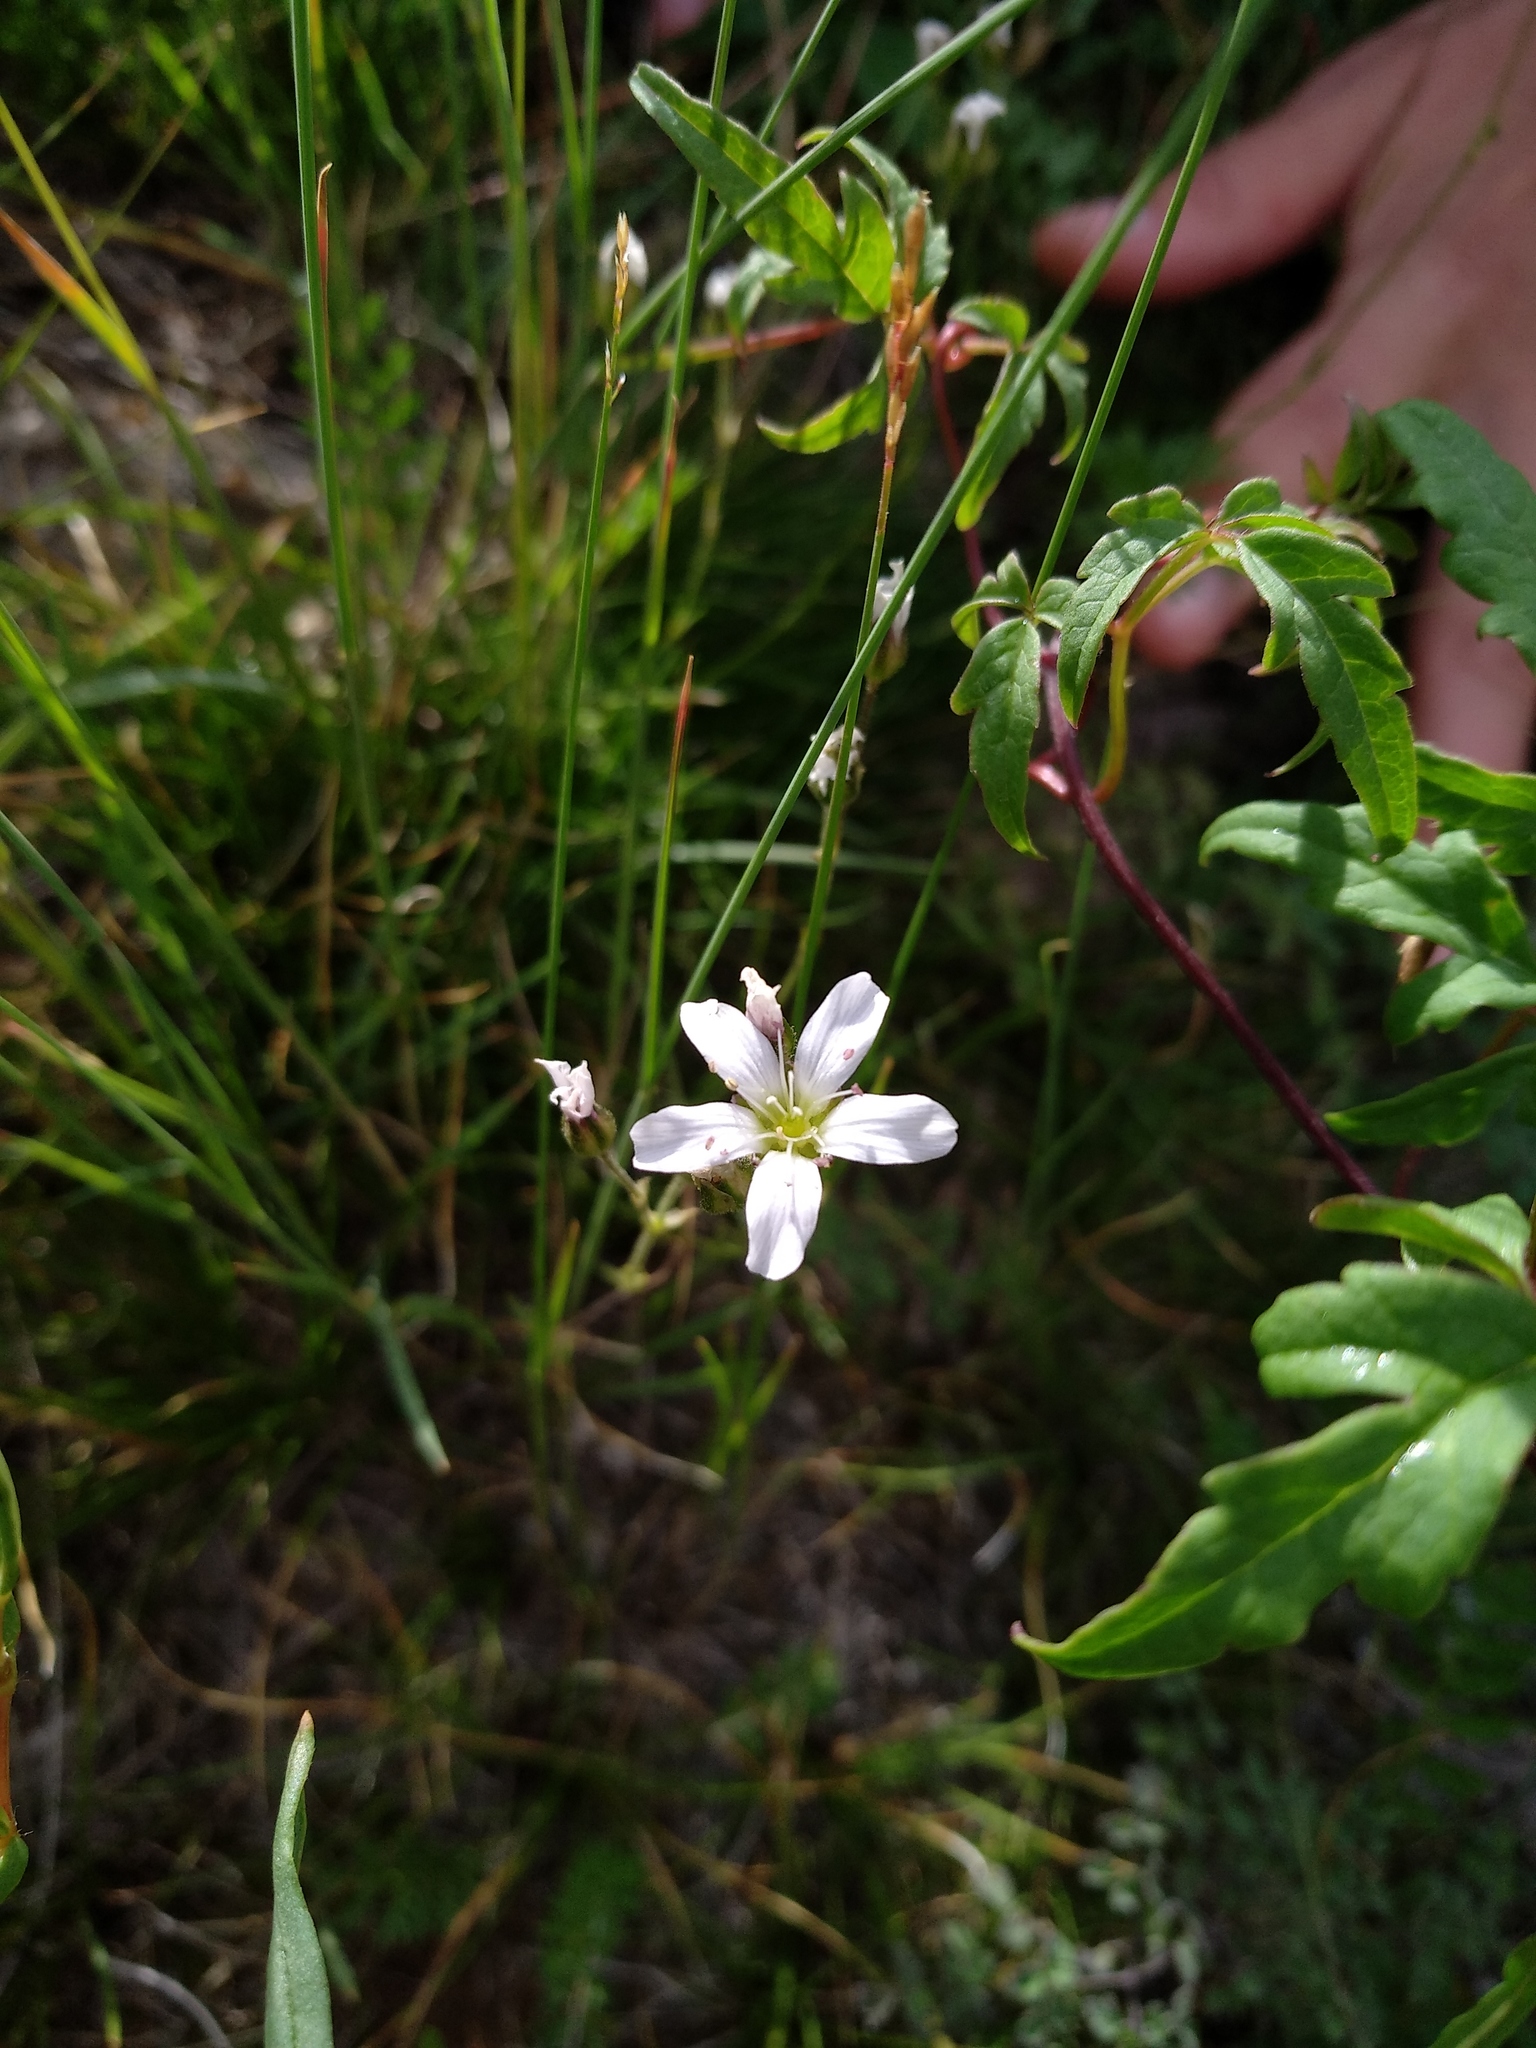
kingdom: Plantae
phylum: Tracheophyta
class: Magnoliopsida
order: Caryophyllales
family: Caryophyllaceae
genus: Eremogone
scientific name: Eremogone capillaris
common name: Slender mountain sandwort
